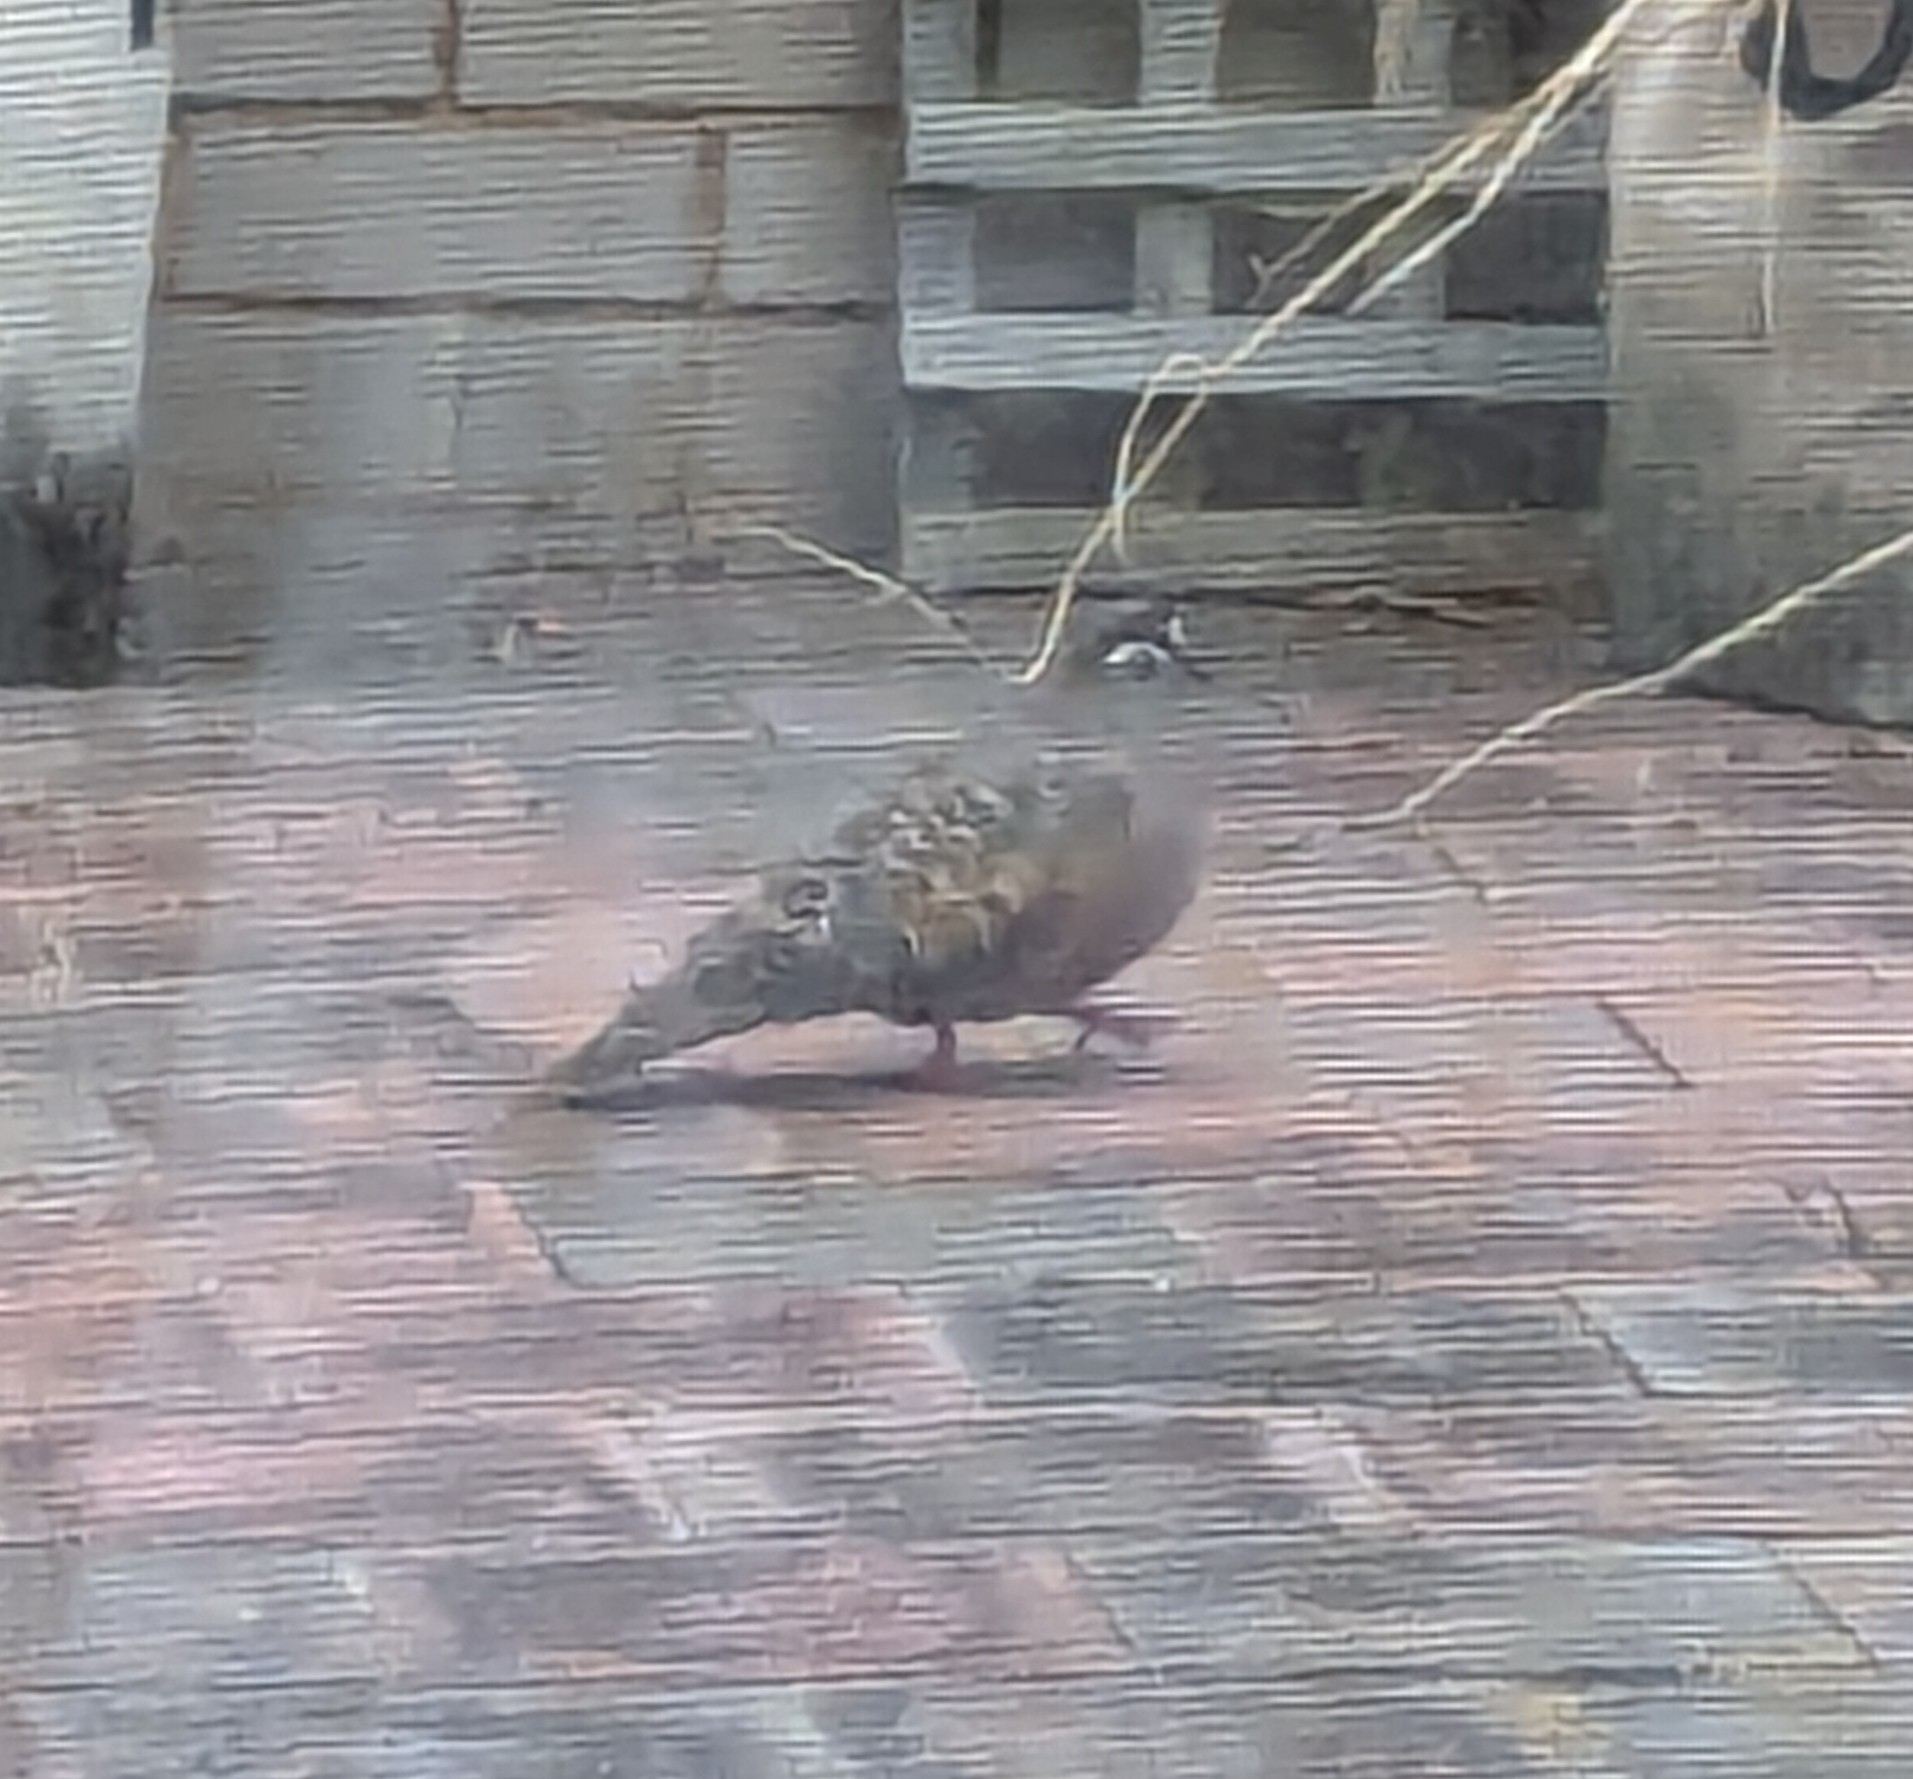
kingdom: Animalia
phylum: Chordata
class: Aves
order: Columbiformes
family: Columbidae
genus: Phaps
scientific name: Phaps chalcoptera
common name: Common bronzewing
